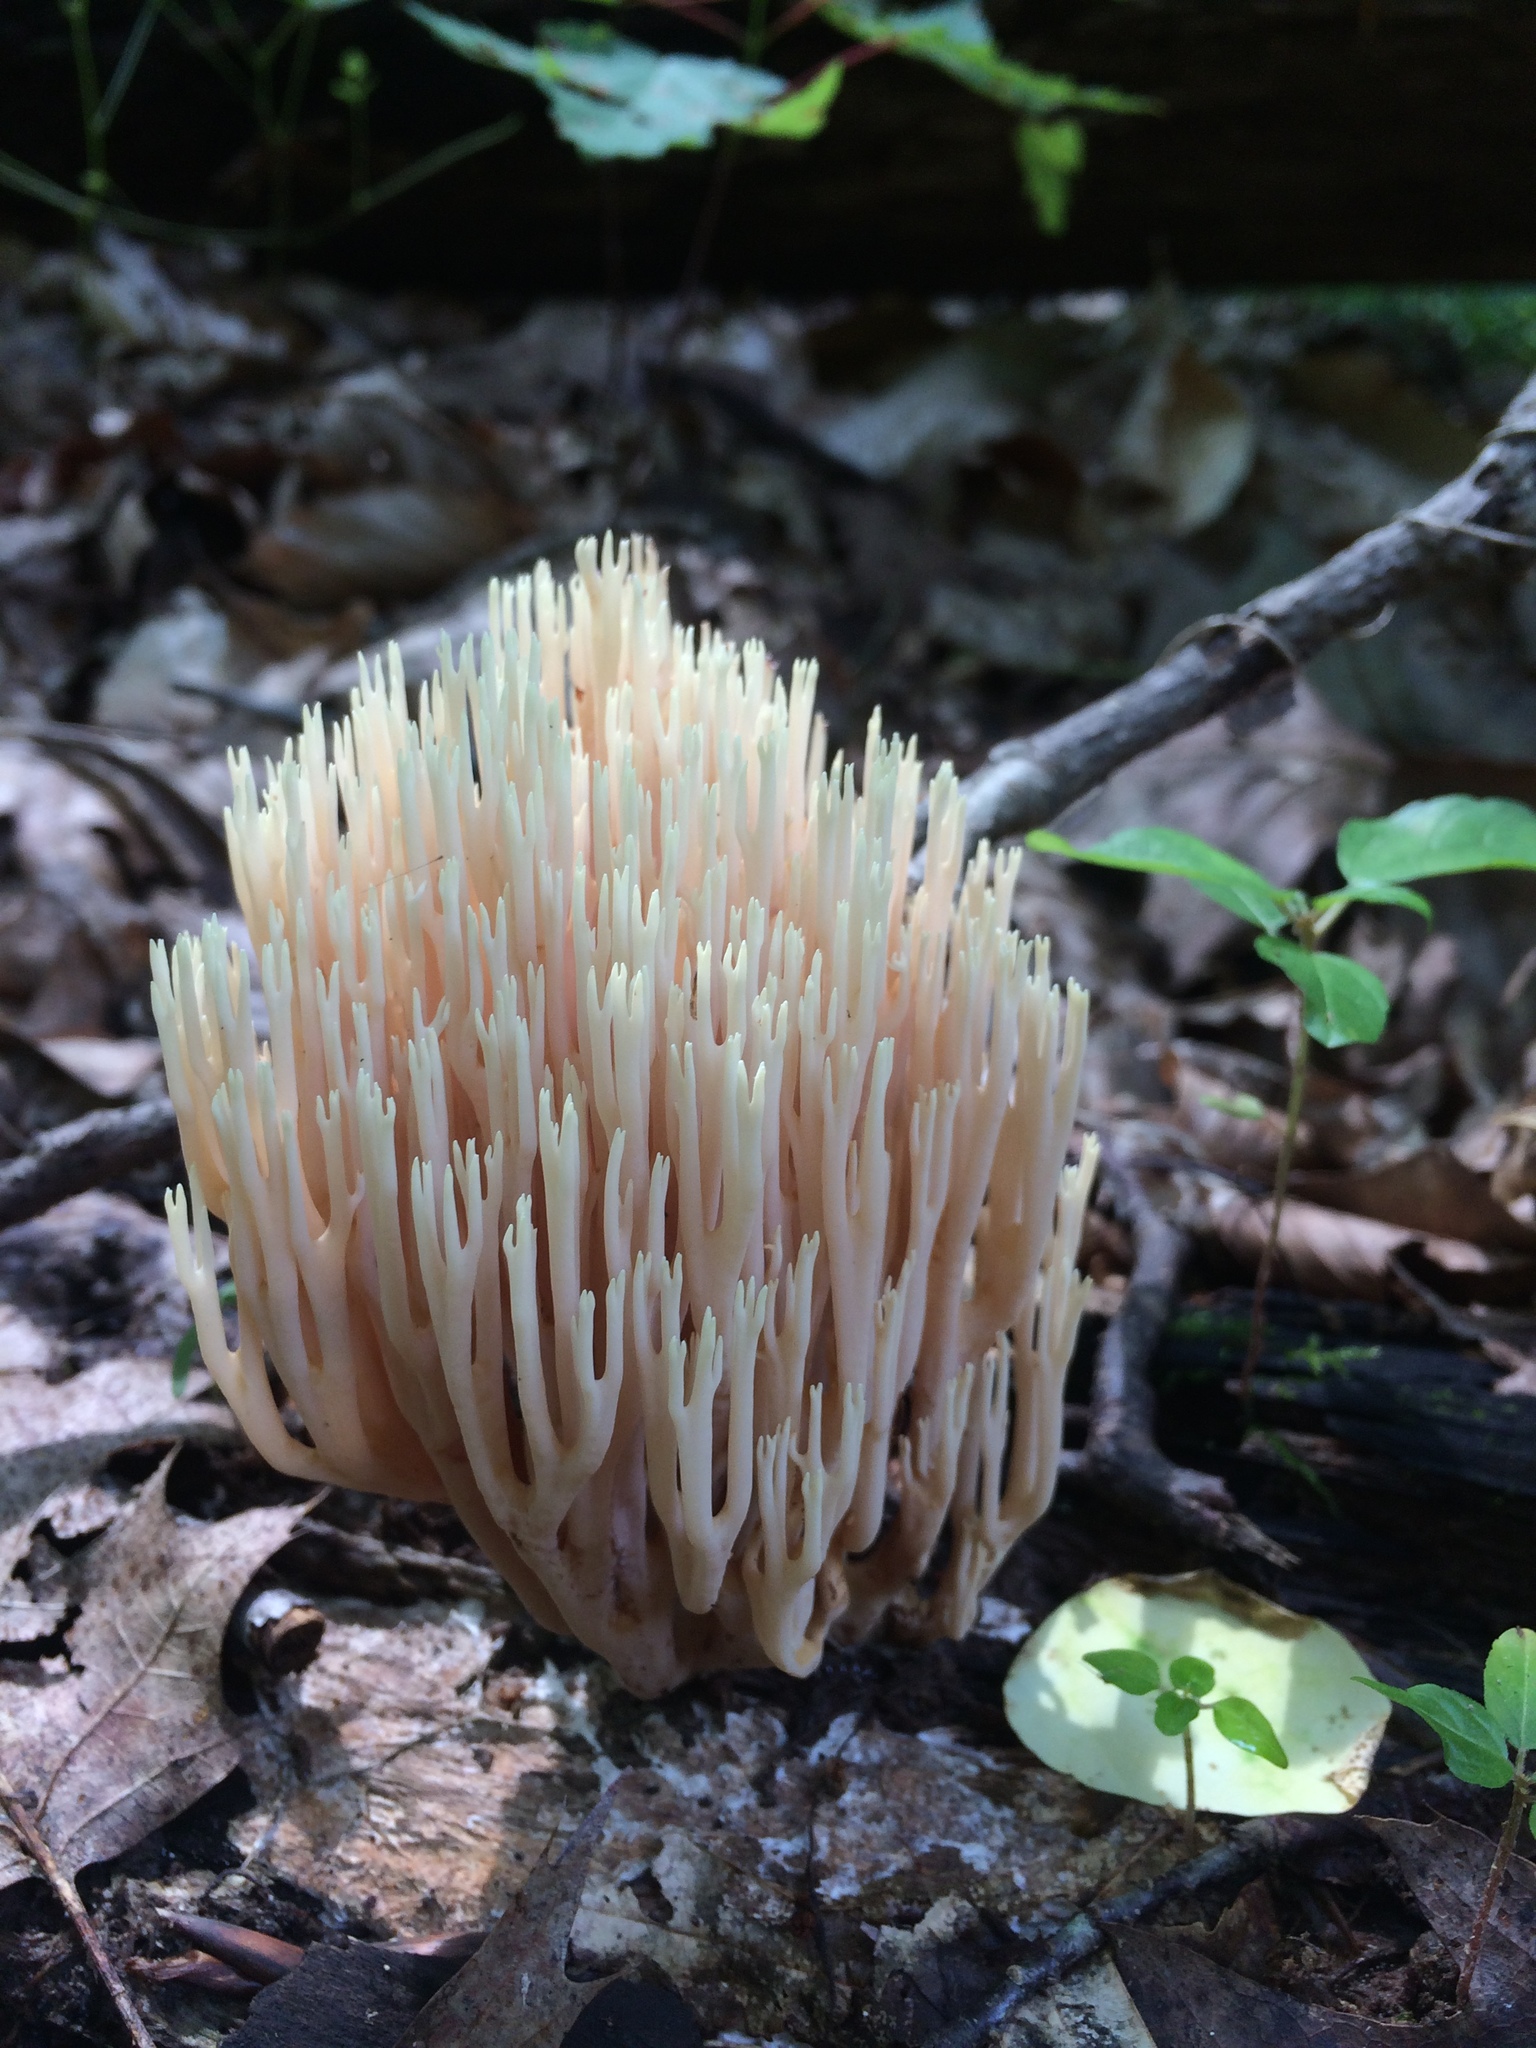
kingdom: Fungi
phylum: Basidiomycota
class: Agaricomycetes
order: Gomphales
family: Gomphaceae
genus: Ramaria
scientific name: Ramaria stricta
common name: Upright coral
